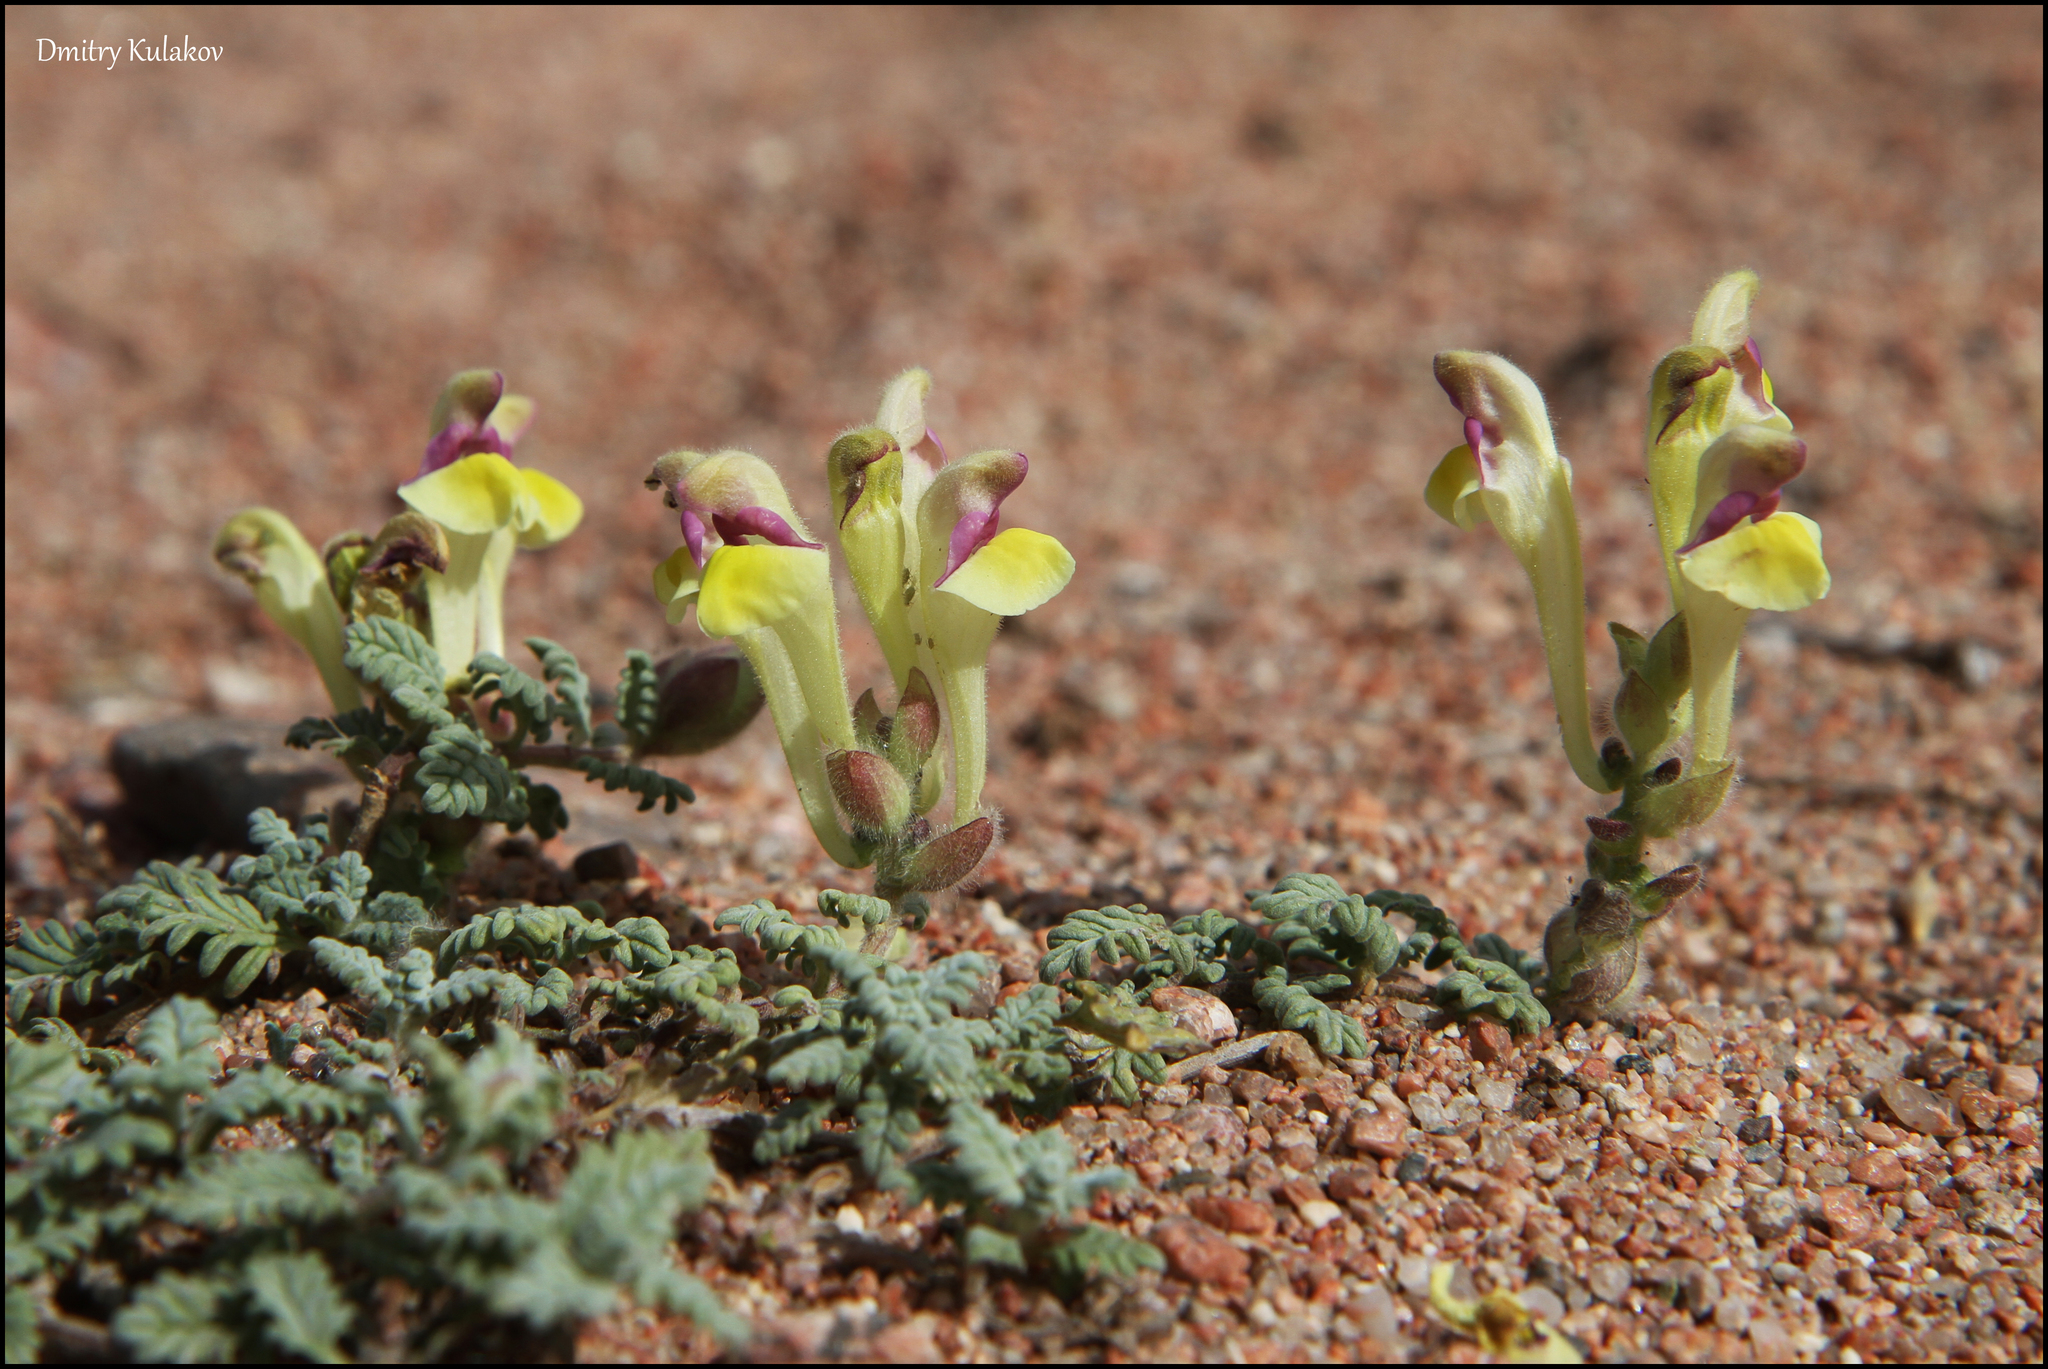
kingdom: Plantae
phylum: Tracheophyta
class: Magnoliopsida
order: Lamiales
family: Lamiaceae
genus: Scutellaria
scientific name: Scutellaria przewalskii
